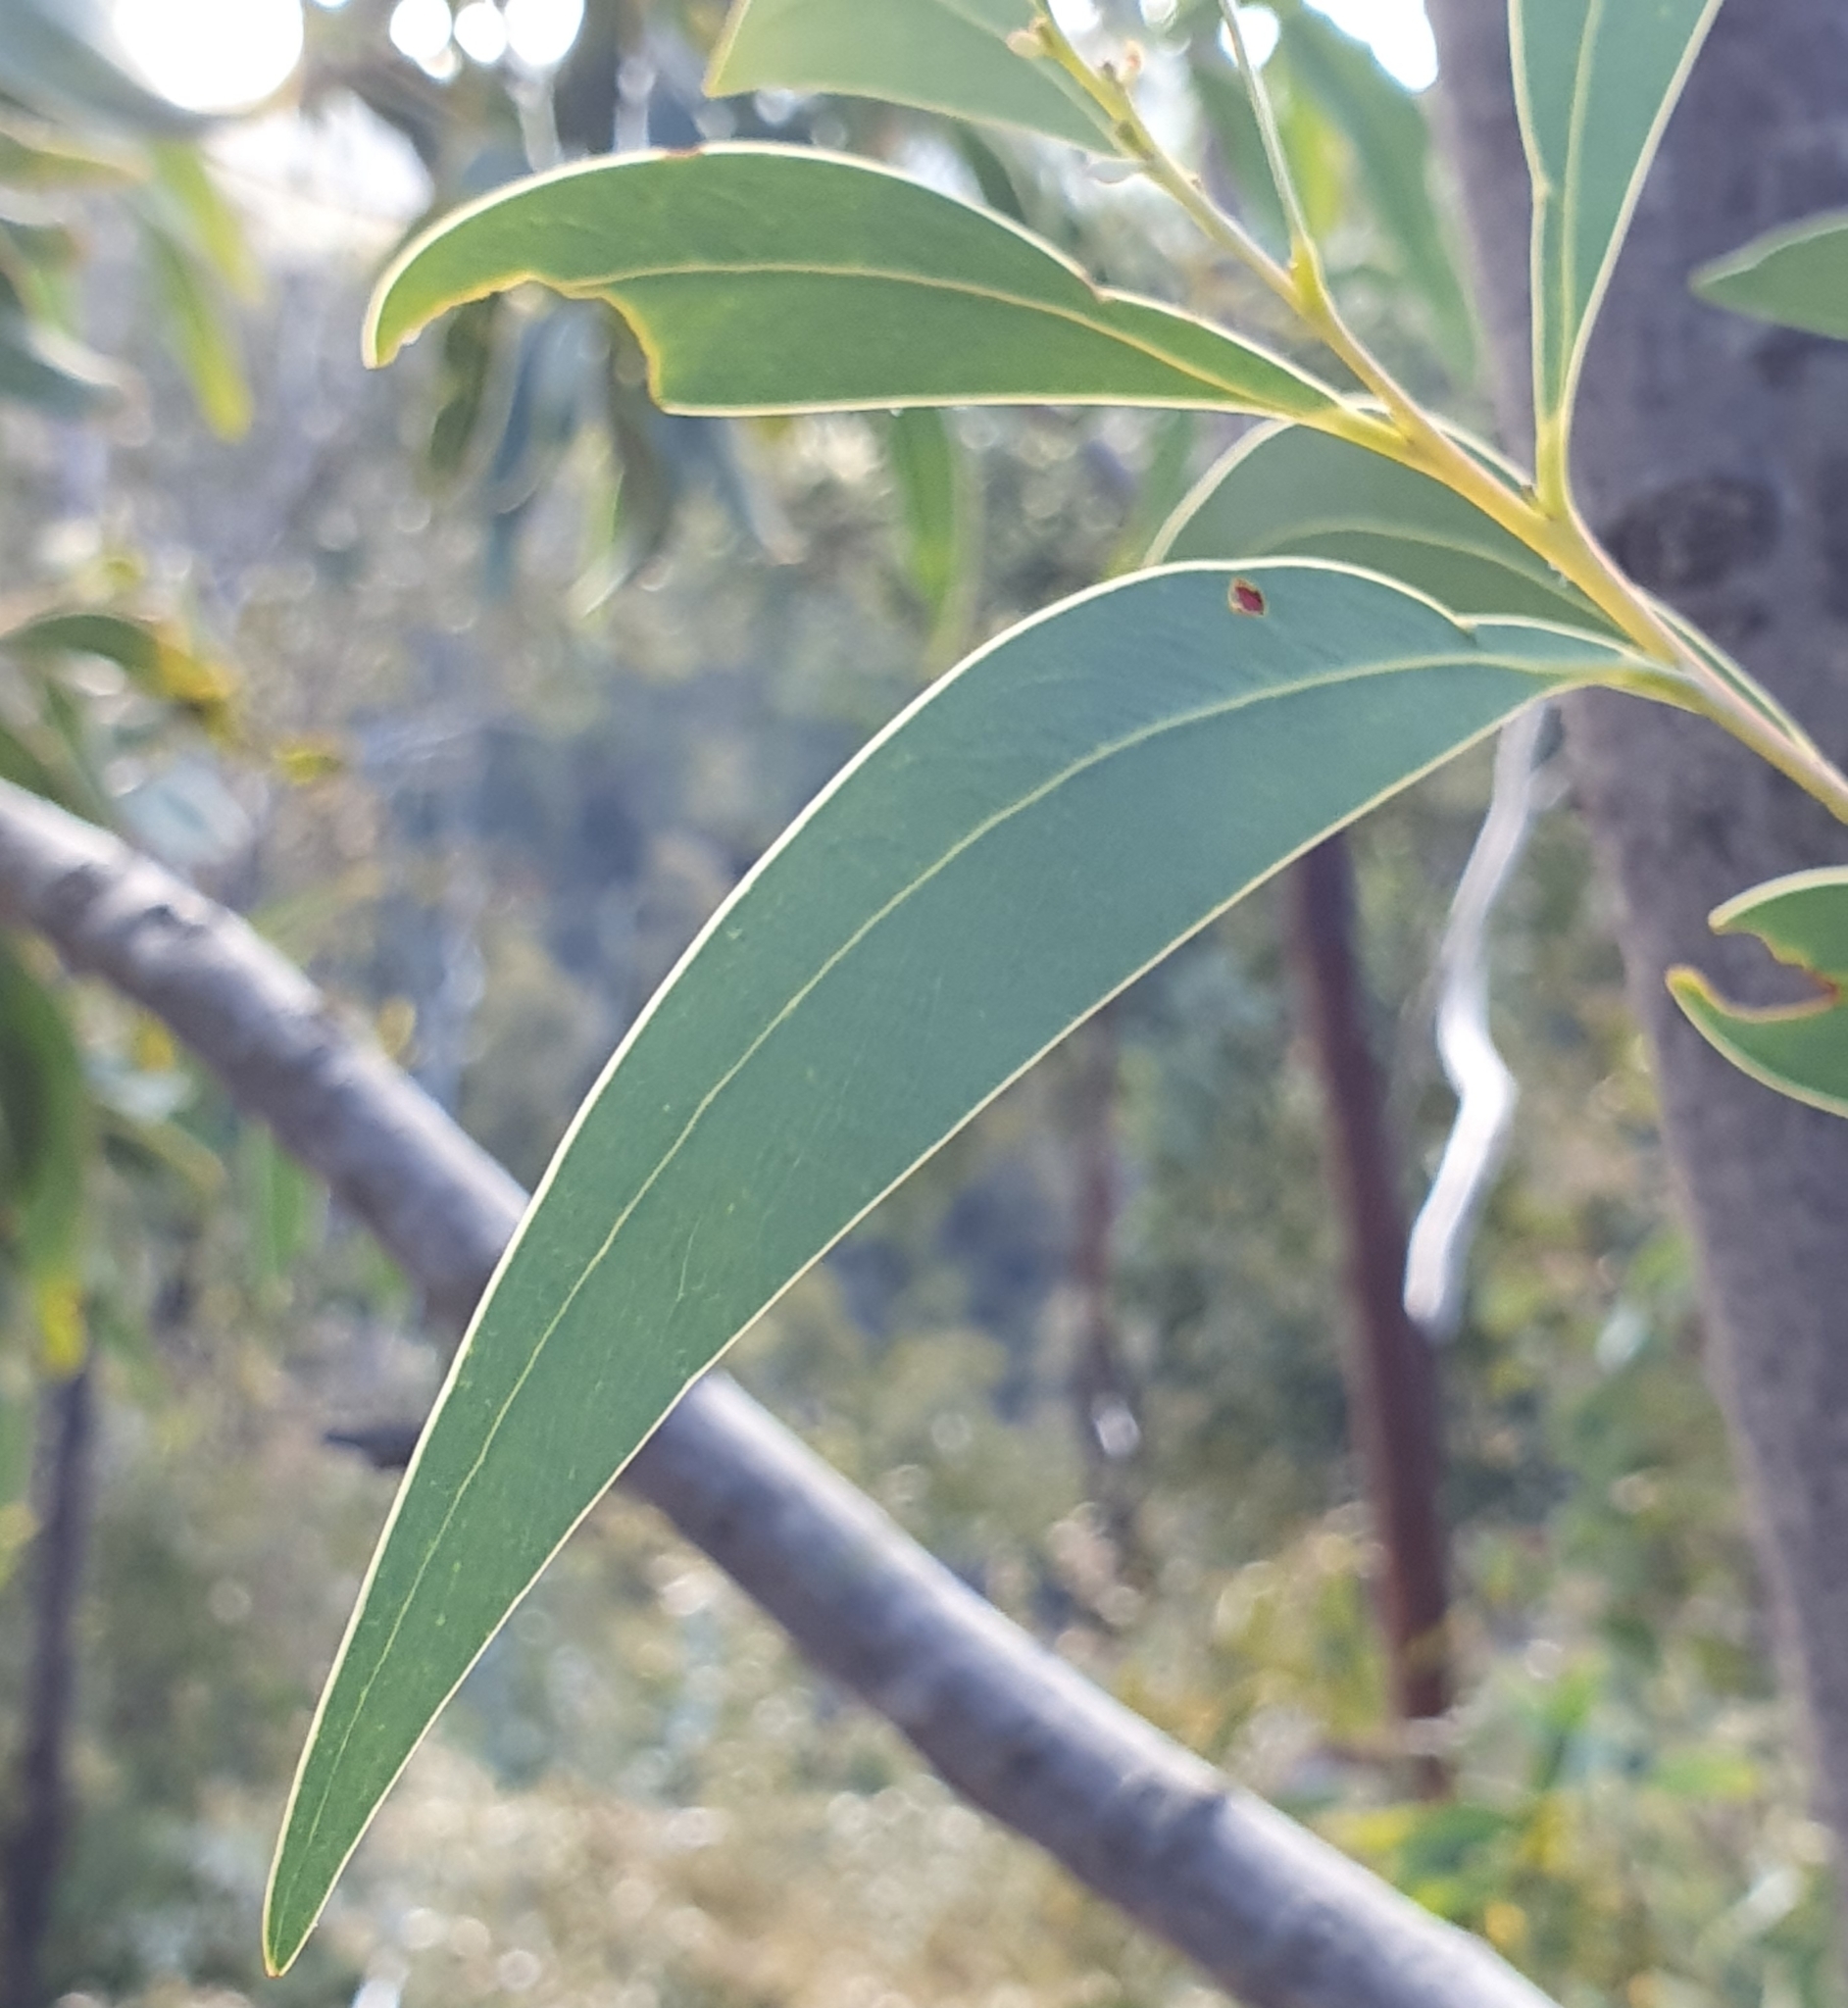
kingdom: Plantae
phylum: Tracheophyta
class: Magnoliopsida
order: Fabales
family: Fabaceae
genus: Acacia
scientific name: Acacia falciformis
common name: Tanning wattle
